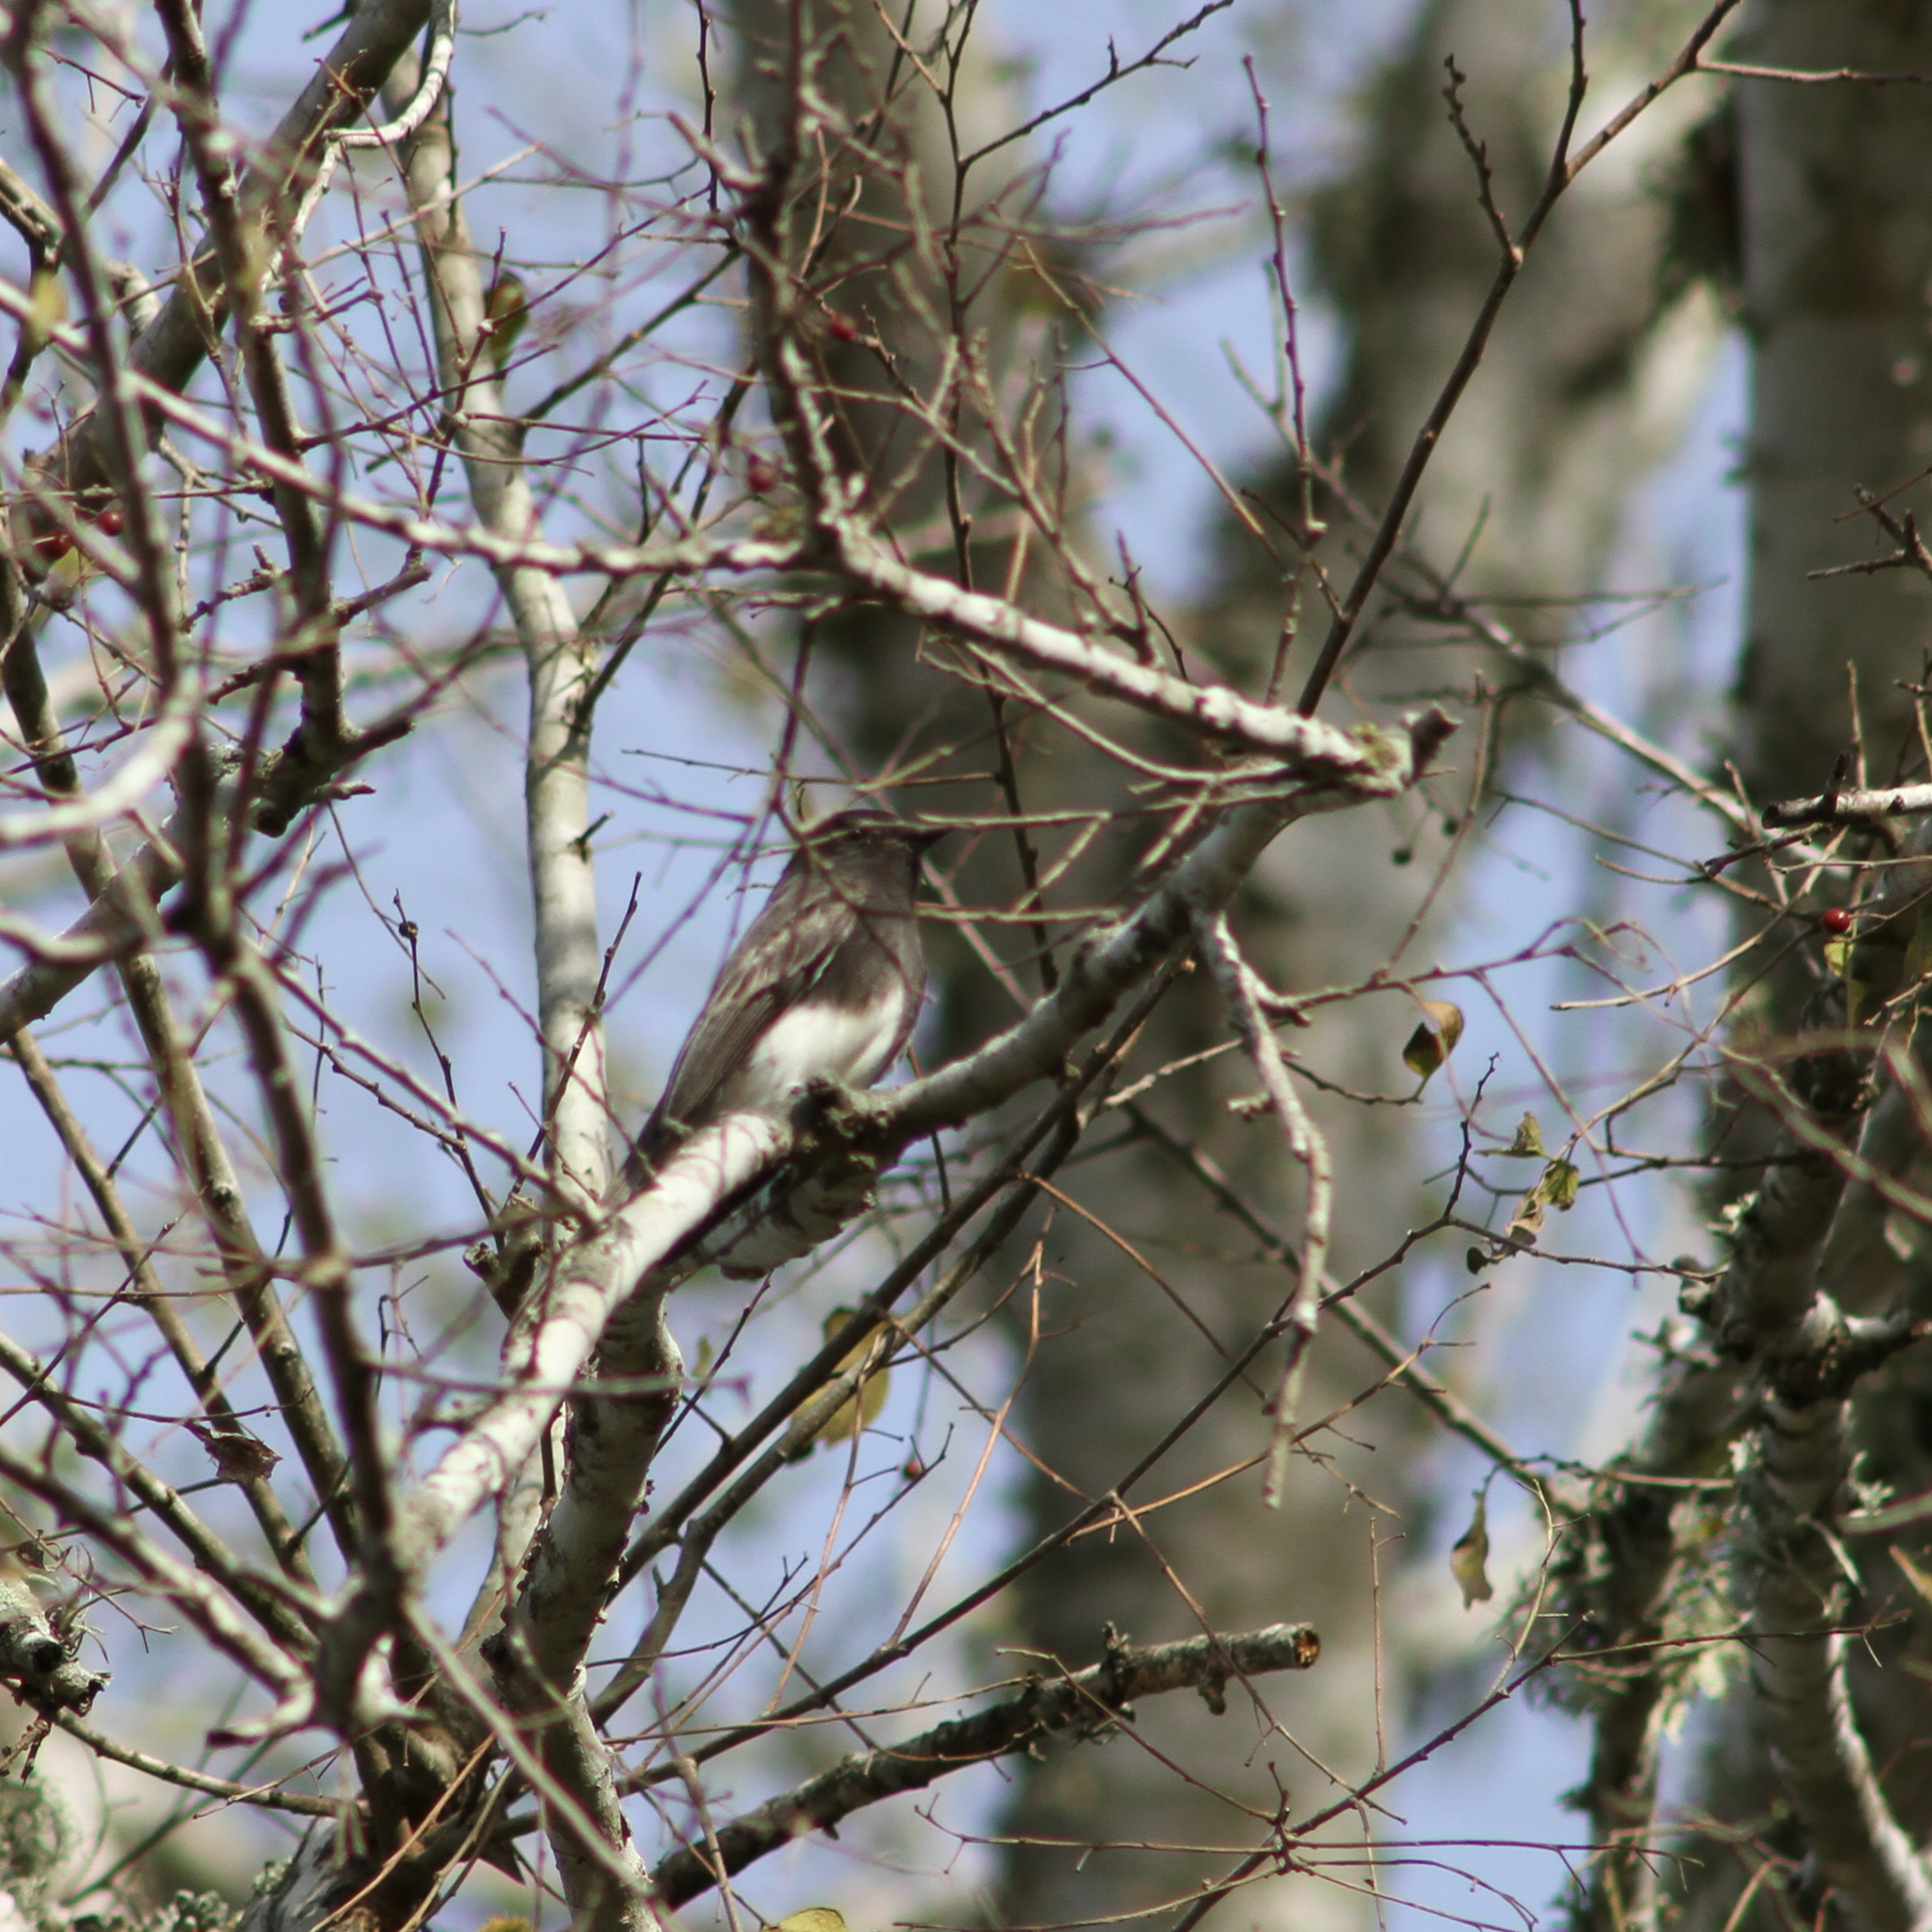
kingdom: Animalia
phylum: Chordata
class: Aves
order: Passeriformes
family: Tyrannidae
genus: Sayornis
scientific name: Sayornis nigricans
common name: Black phoebe
